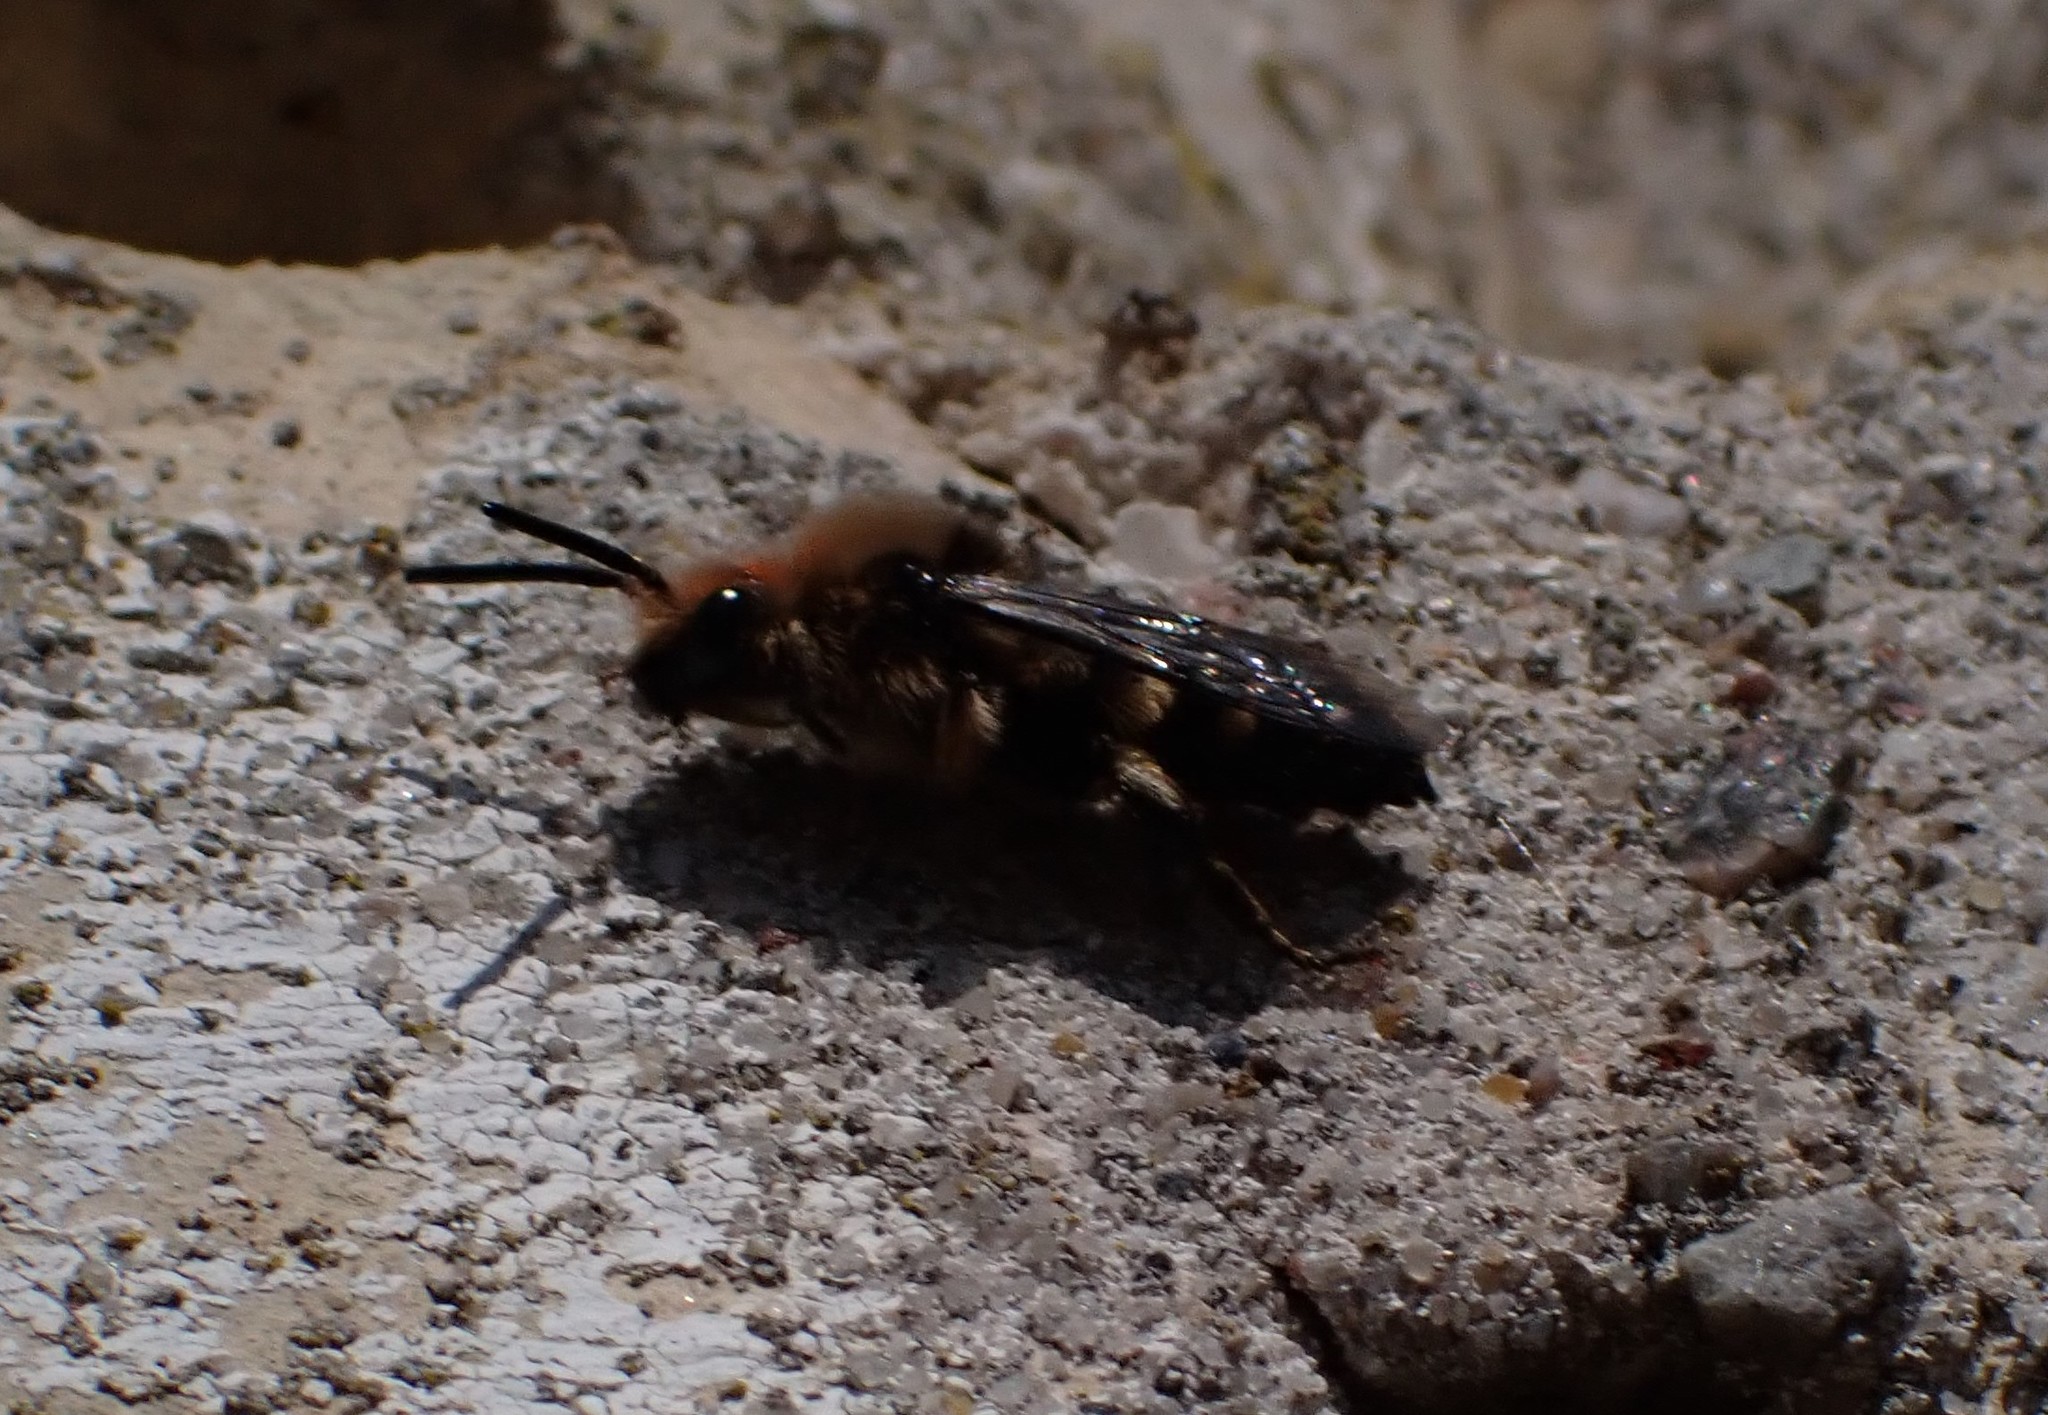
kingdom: Animalia
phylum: Arthropoda
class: Insecta
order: Hymenoptera
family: Apidae
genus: Melecta
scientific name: Melecta albifrons
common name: Common mourning bee
